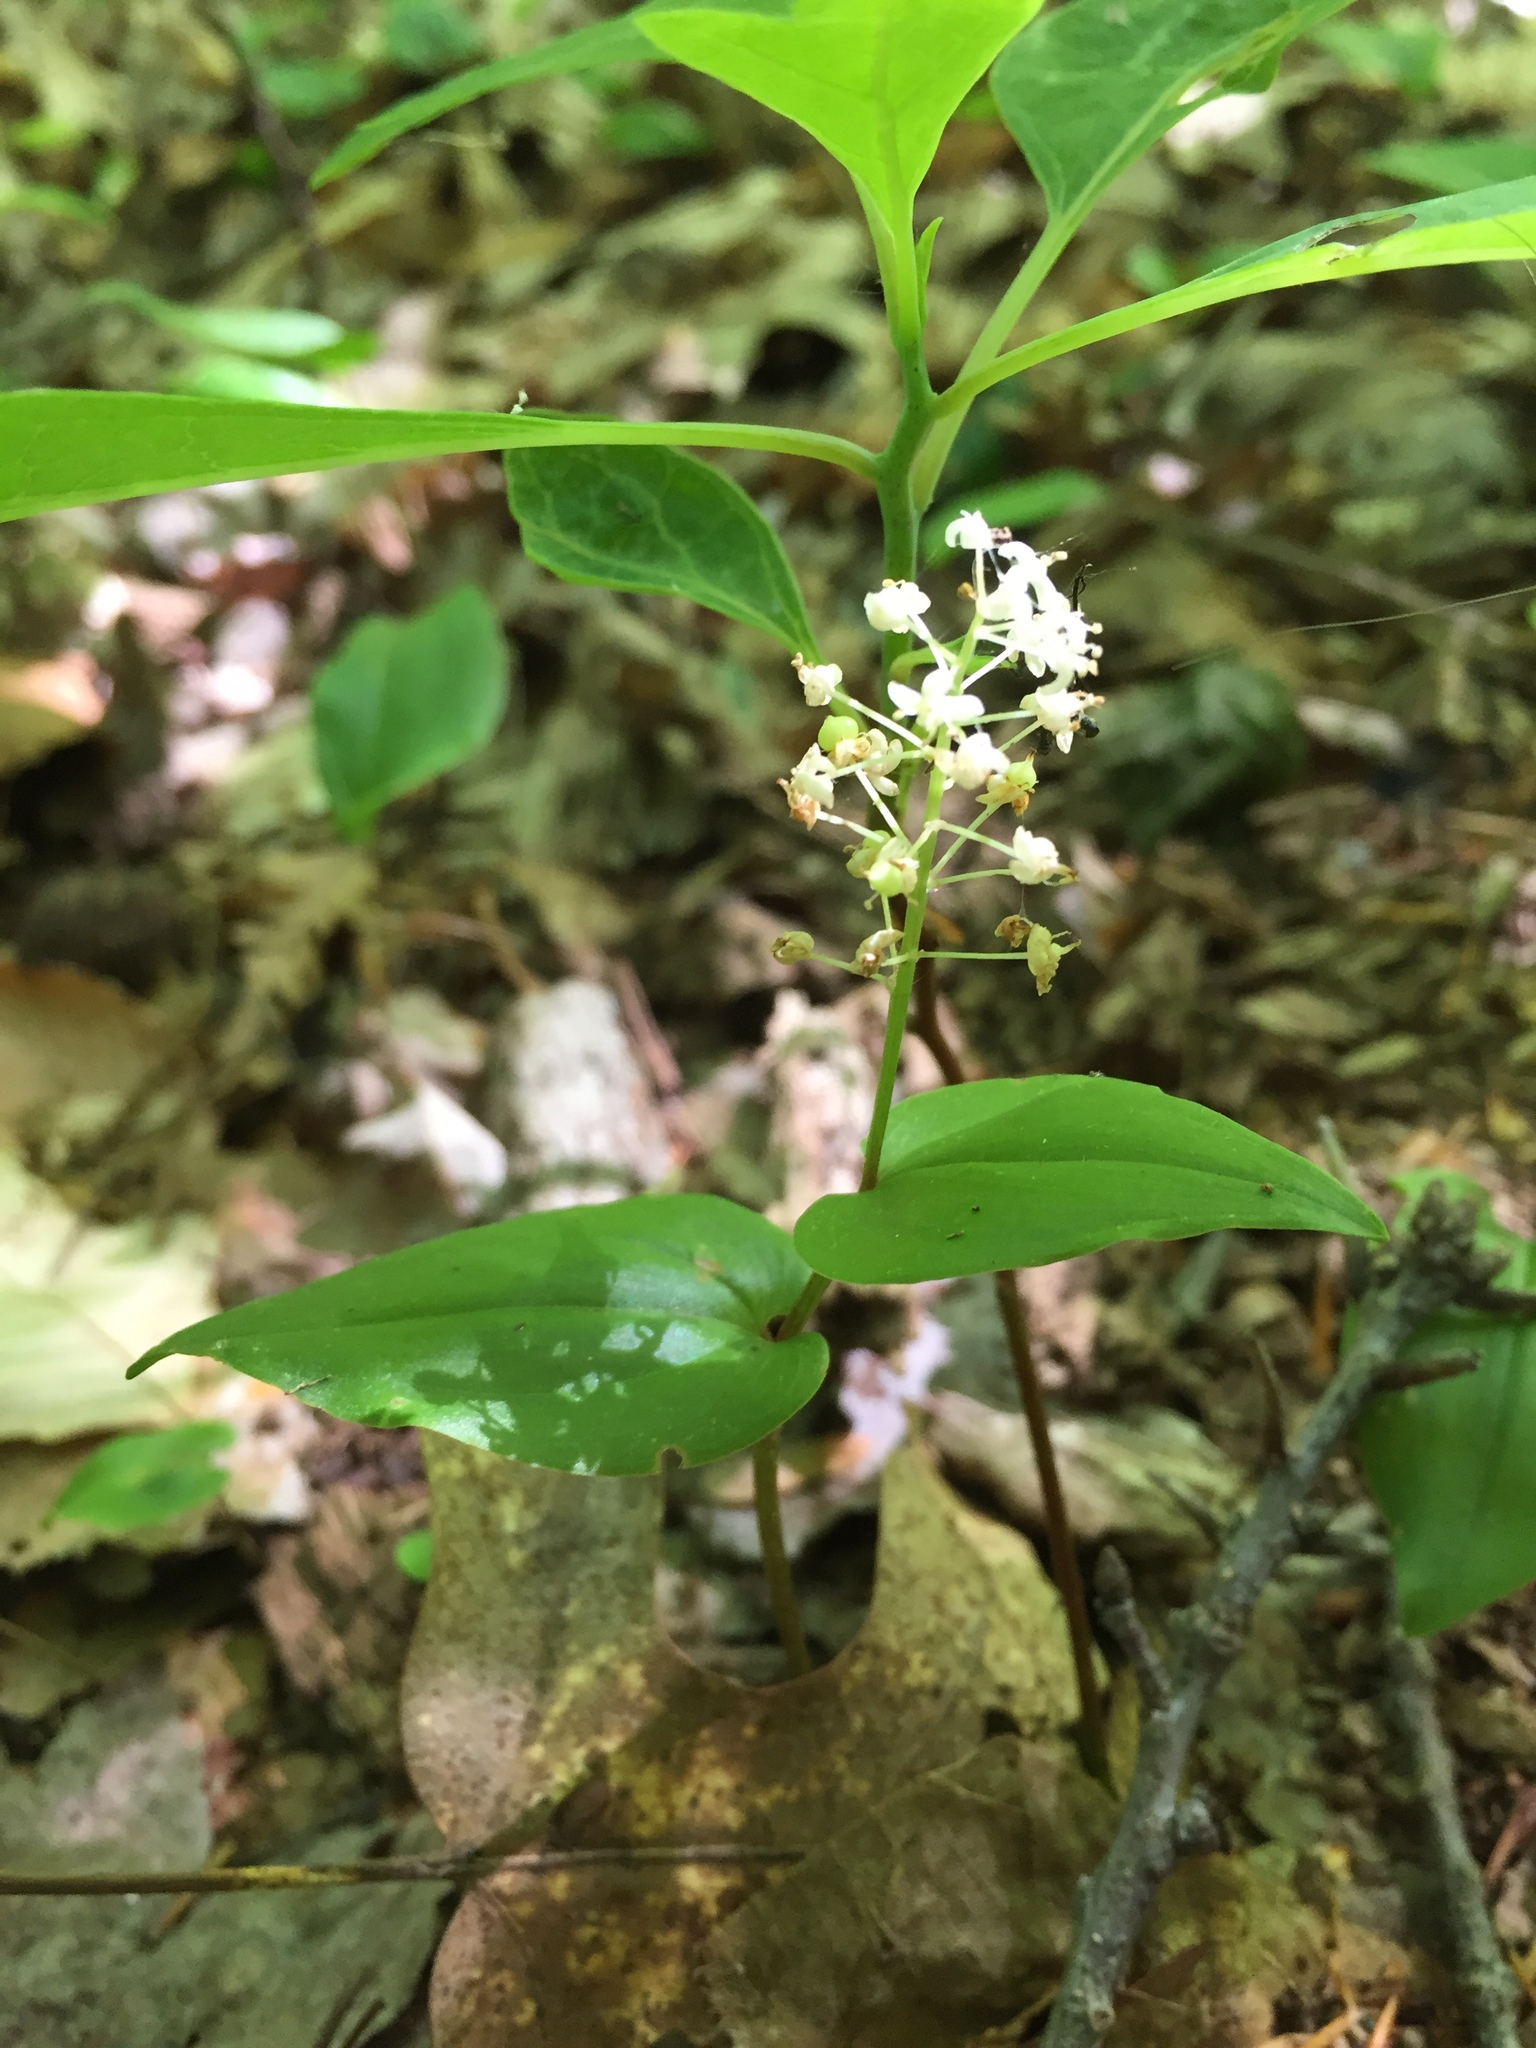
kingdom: Plantae
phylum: Tracheophyta
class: Liliopsida
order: Asparagales
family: Asparagaceae
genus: Maianthemum
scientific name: Maianthemum canadense
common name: False lily-of-the-valley
